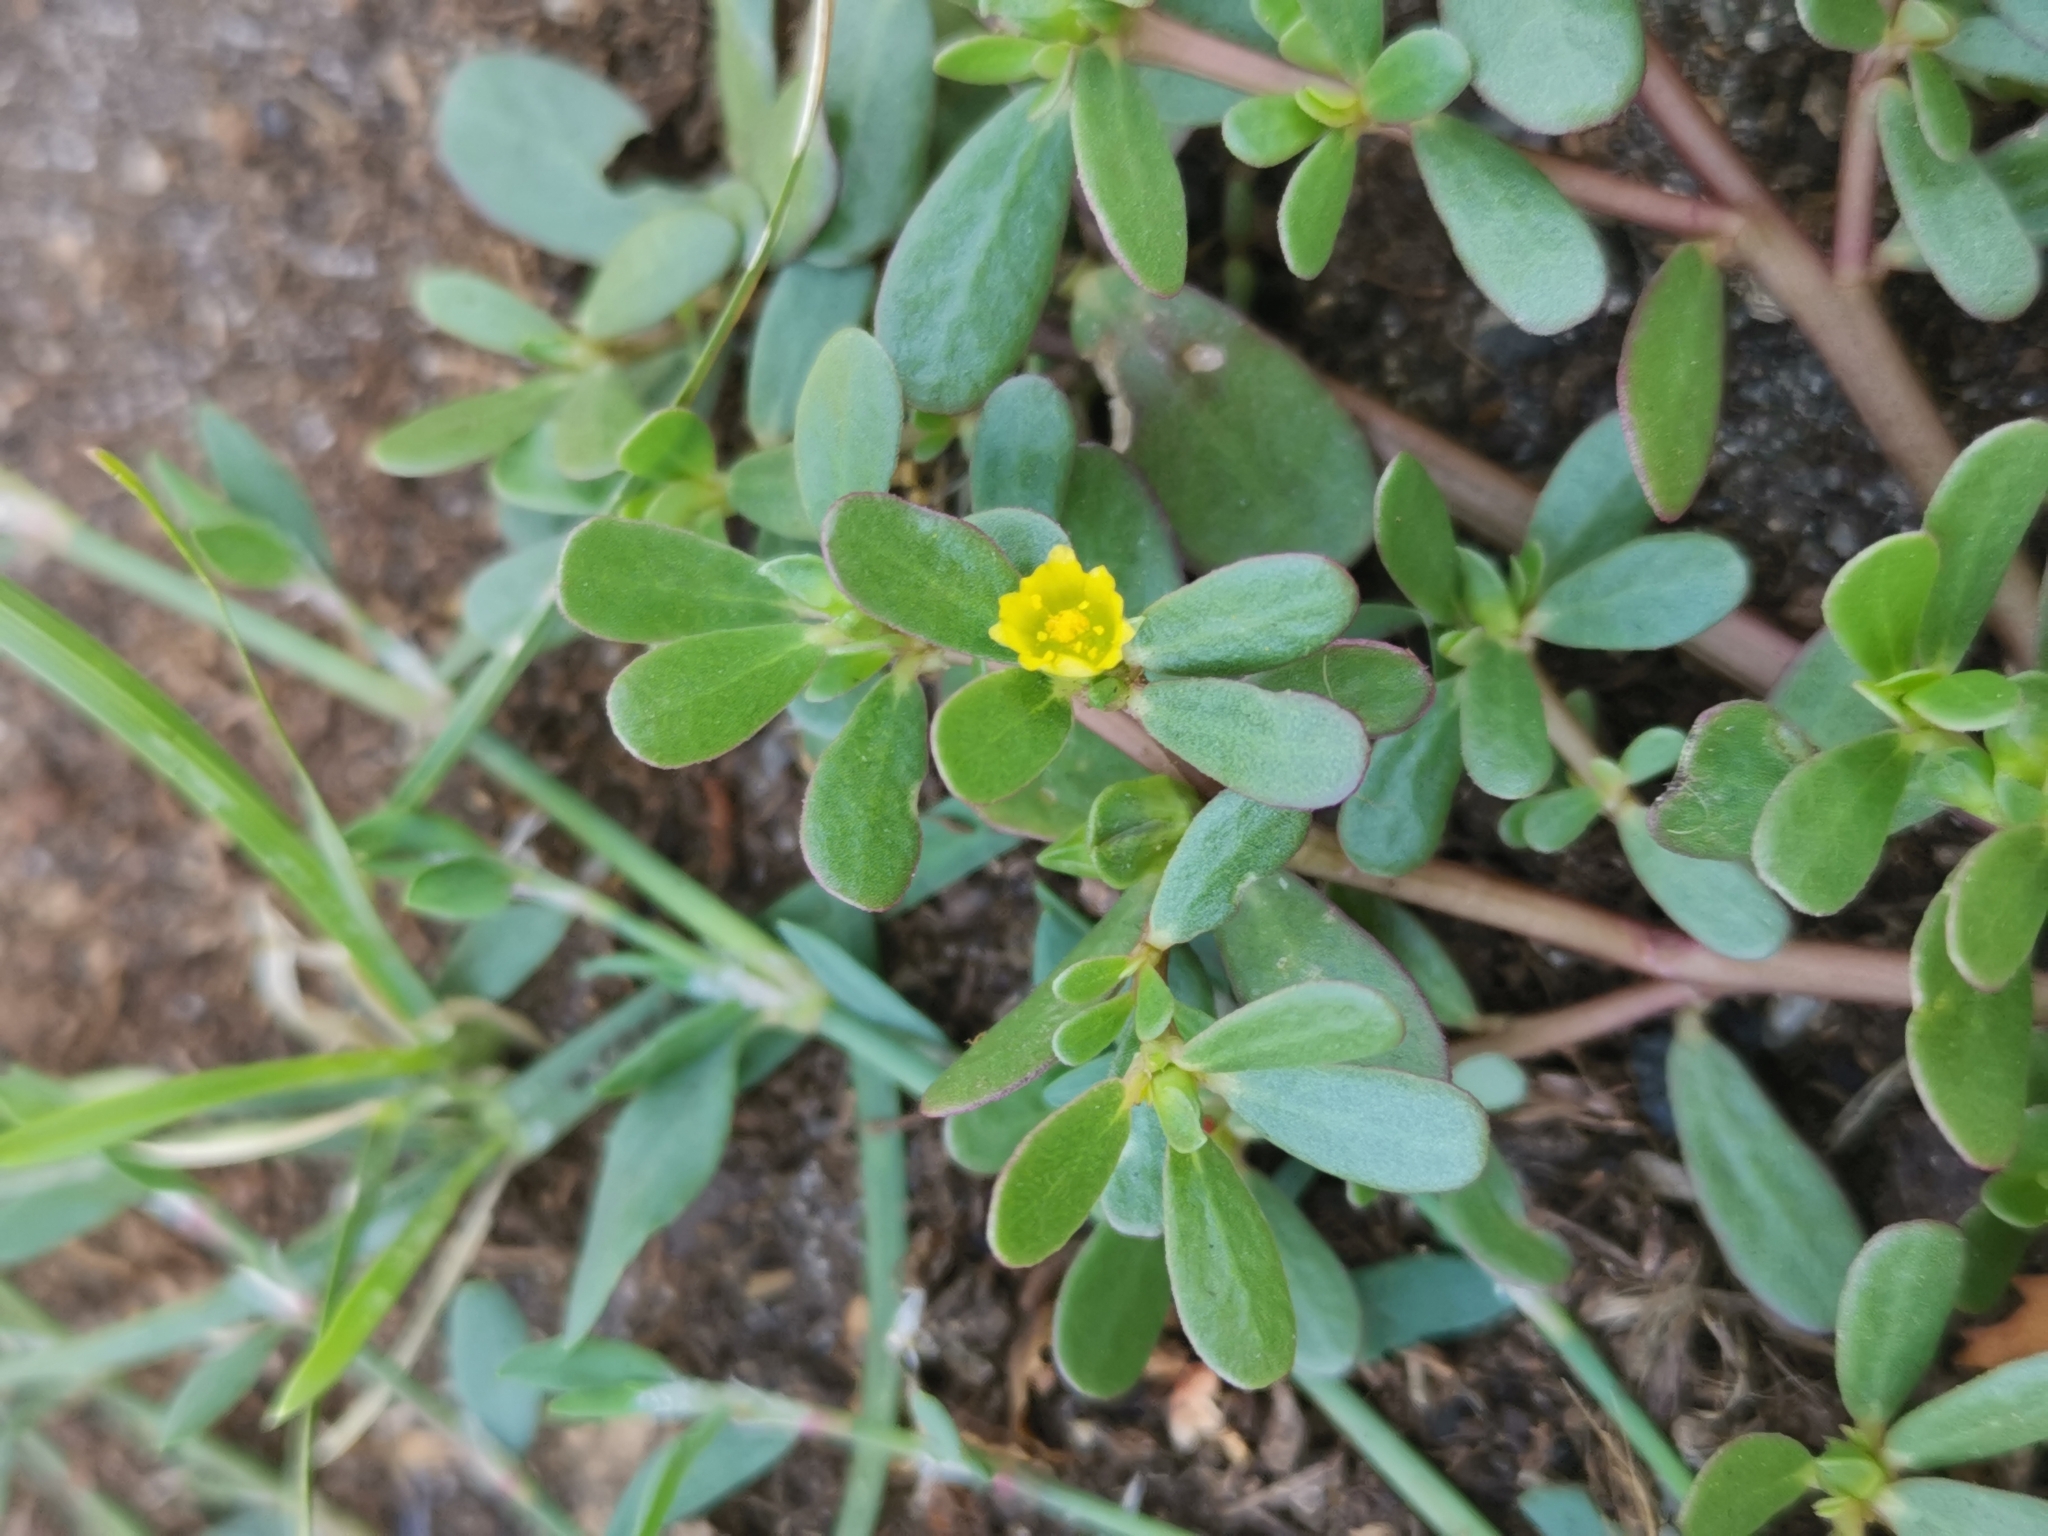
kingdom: Plantae
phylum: Tracheophyta
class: Magnoliopsida
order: Caryophyllales
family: Portulacaceae
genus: Portulaca
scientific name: Portulaca oleracea
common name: Common purslane
